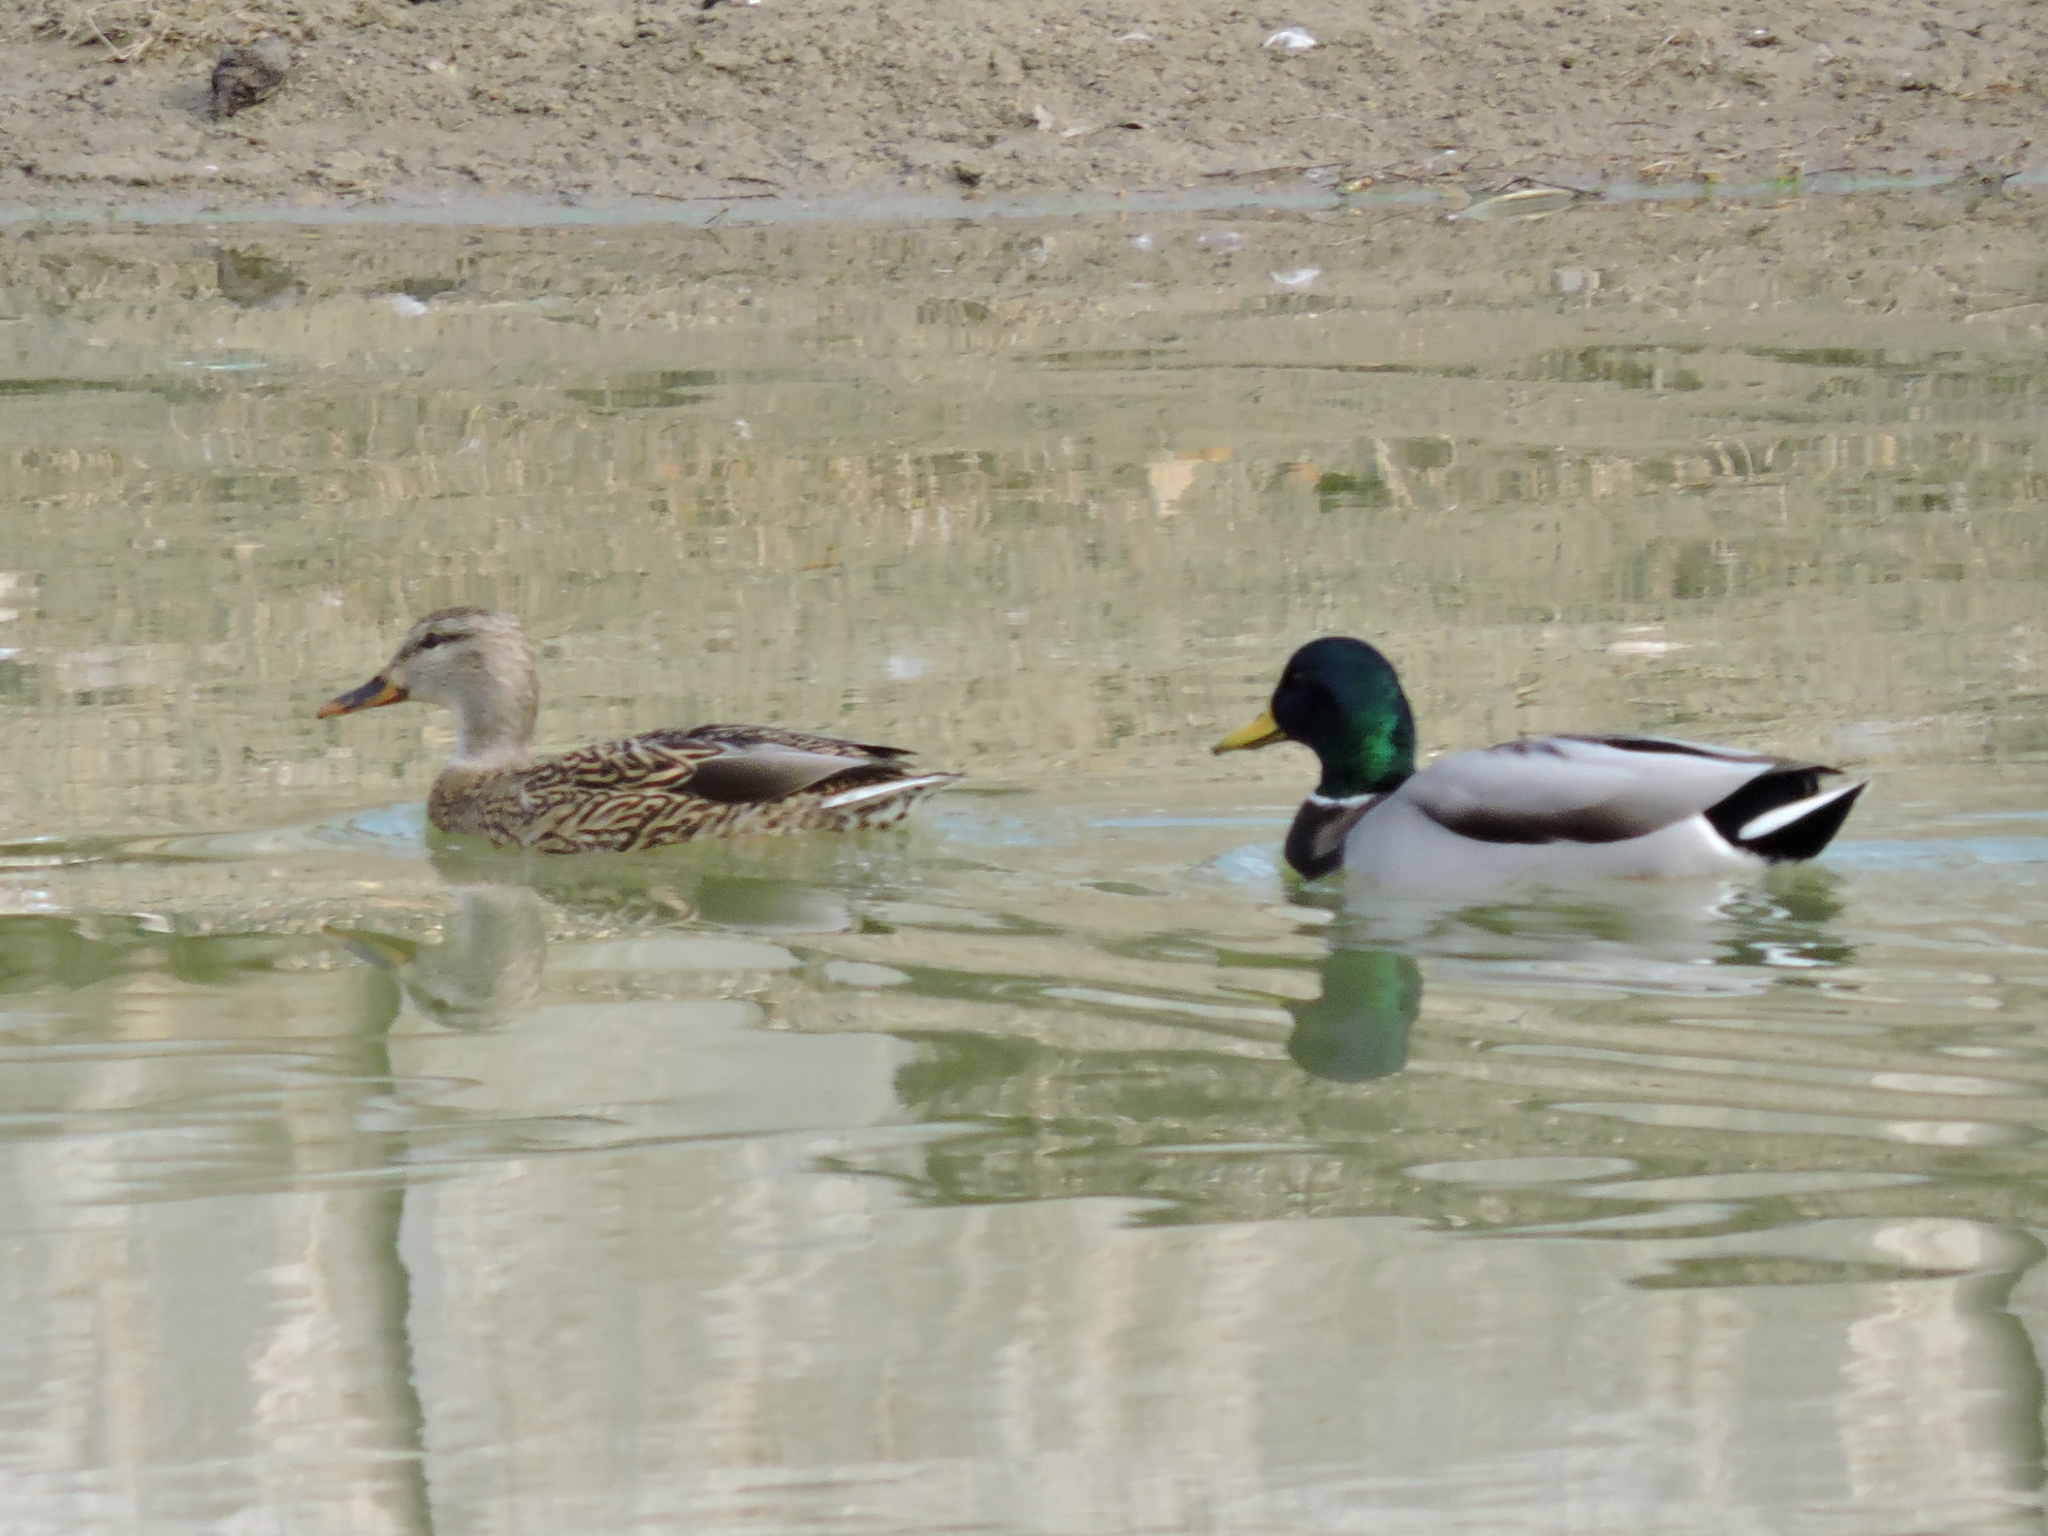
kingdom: Animalia
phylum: Chordata
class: Aves
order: Anseriformes
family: Anatidae
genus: Anas
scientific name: Anas platyrhynchos
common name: Mallard
